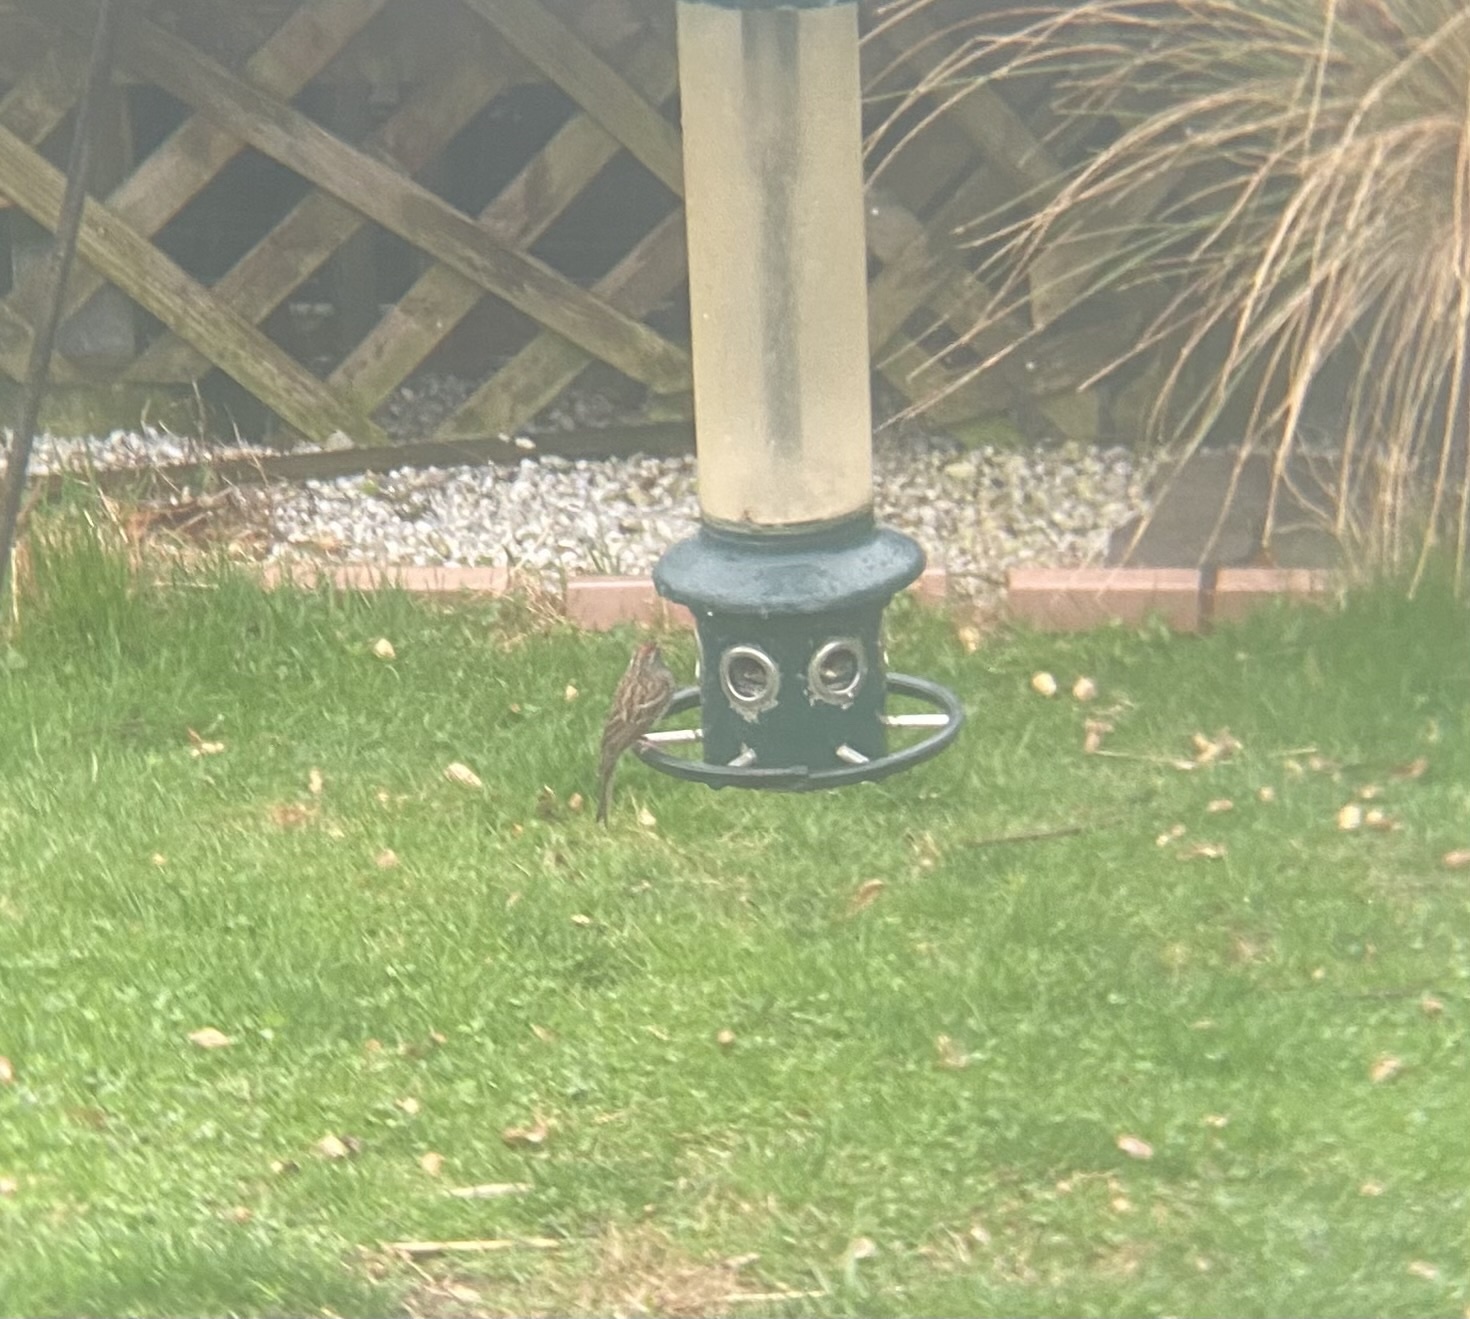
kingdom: Animalia
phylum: Chordata
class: Aves
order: Passeriformes
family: Passerellidae
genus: Spizella
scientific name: Spizella passerina
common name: Chipping sparrow
